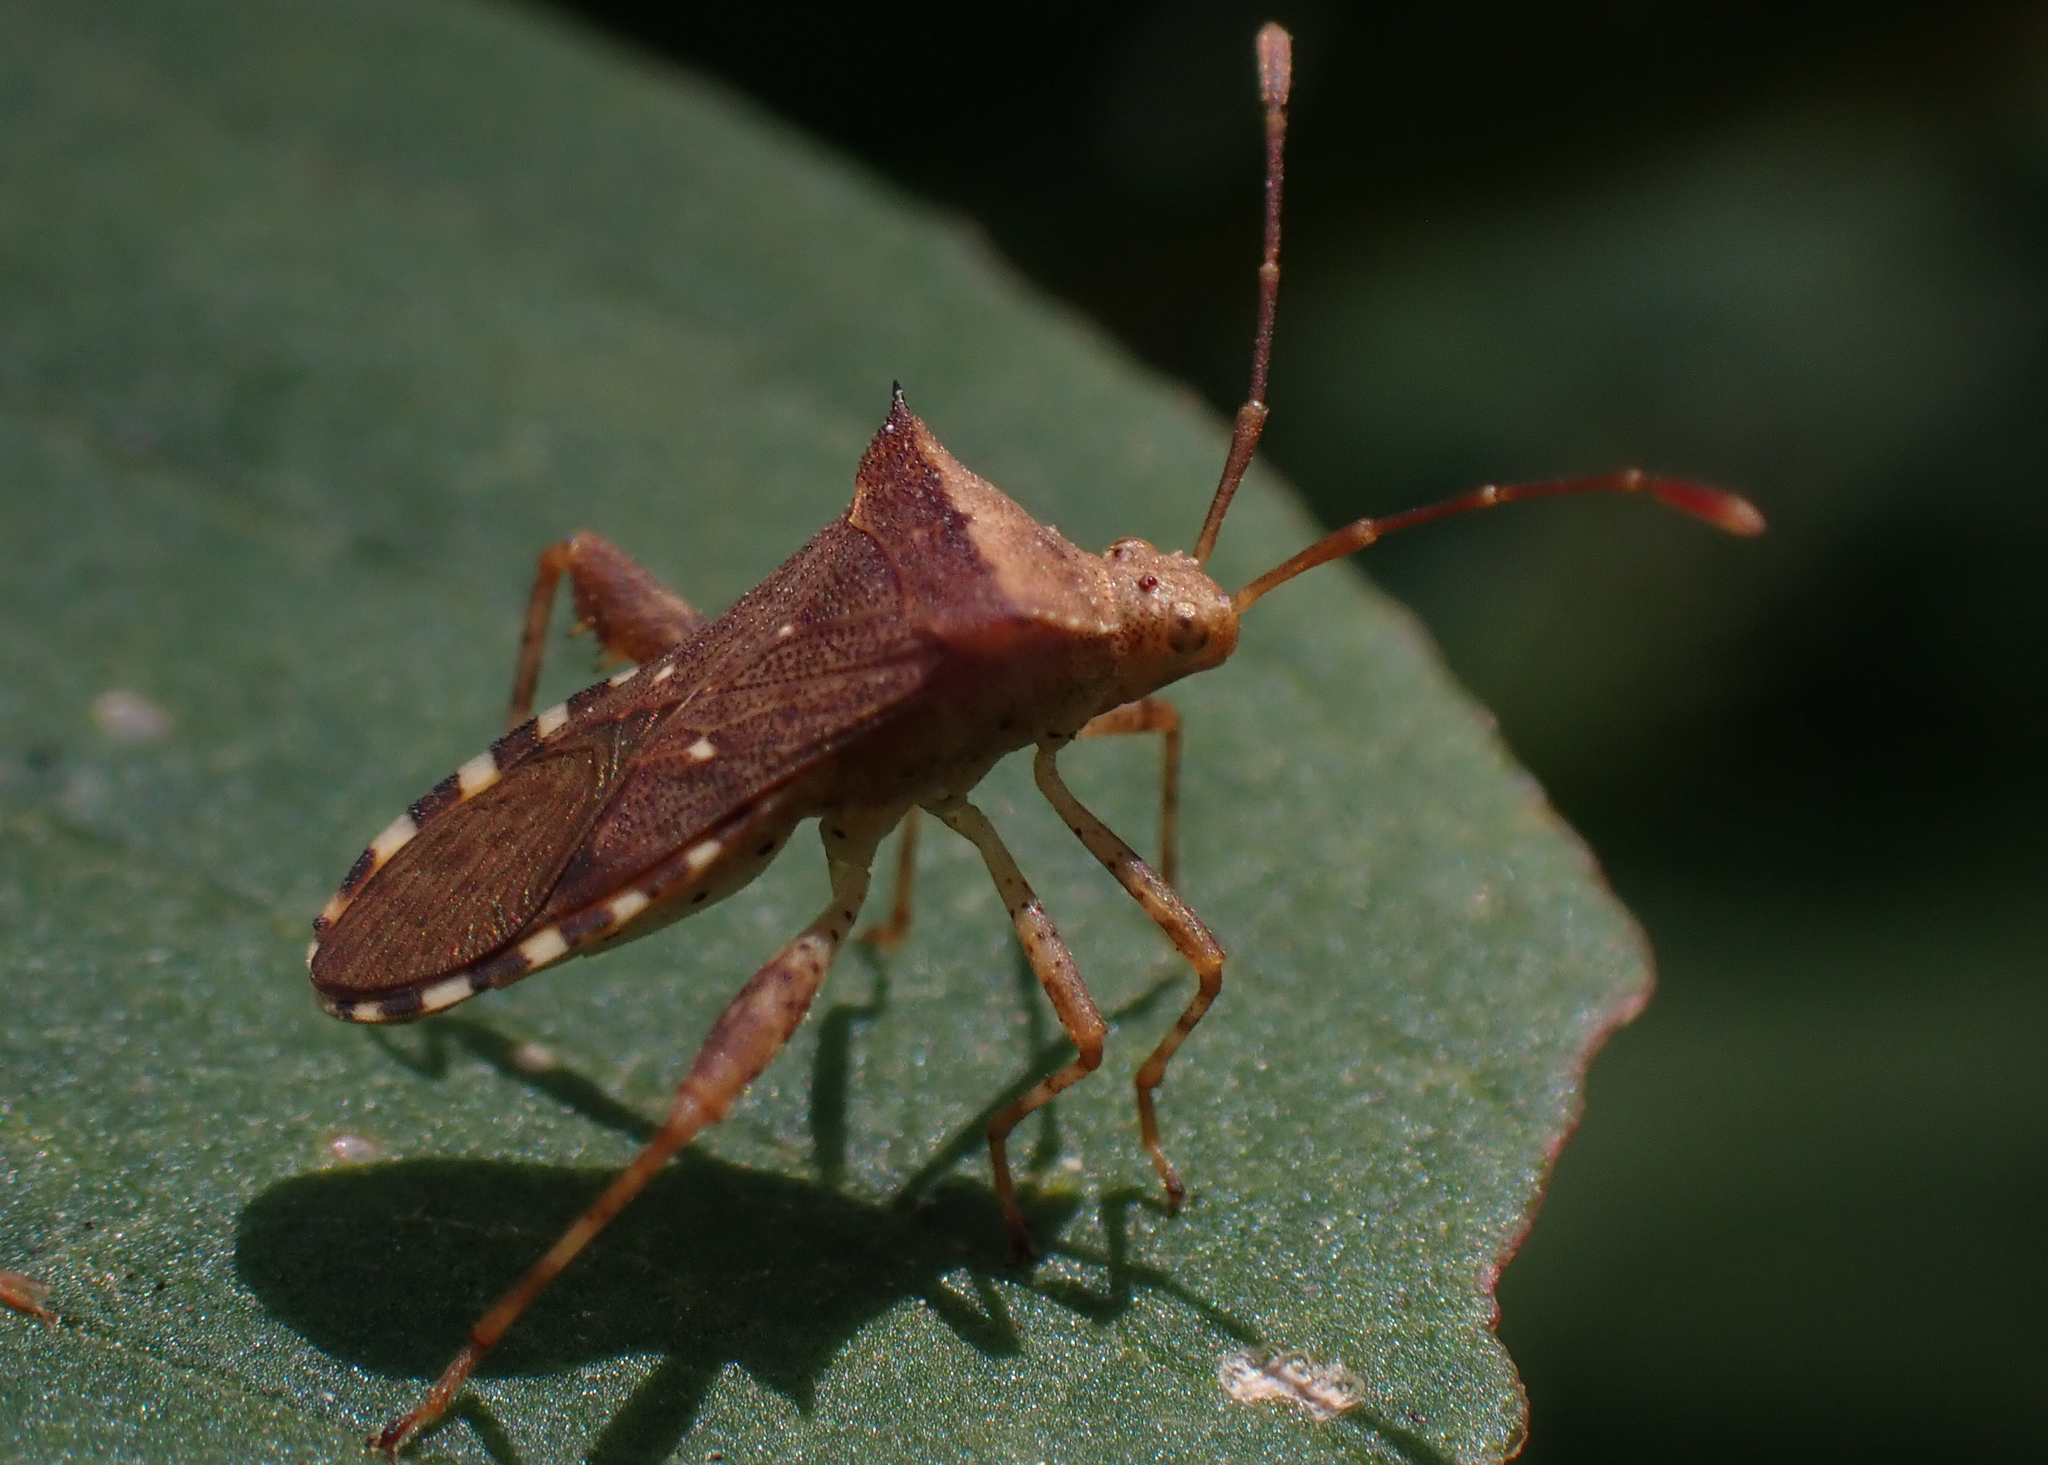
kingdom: Animalia
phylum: Arthropoda
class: Insecta
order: Hemiptera
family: Coreidae
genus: Zicca
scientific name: Zicca taeniola
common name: Leaf-footed bug
